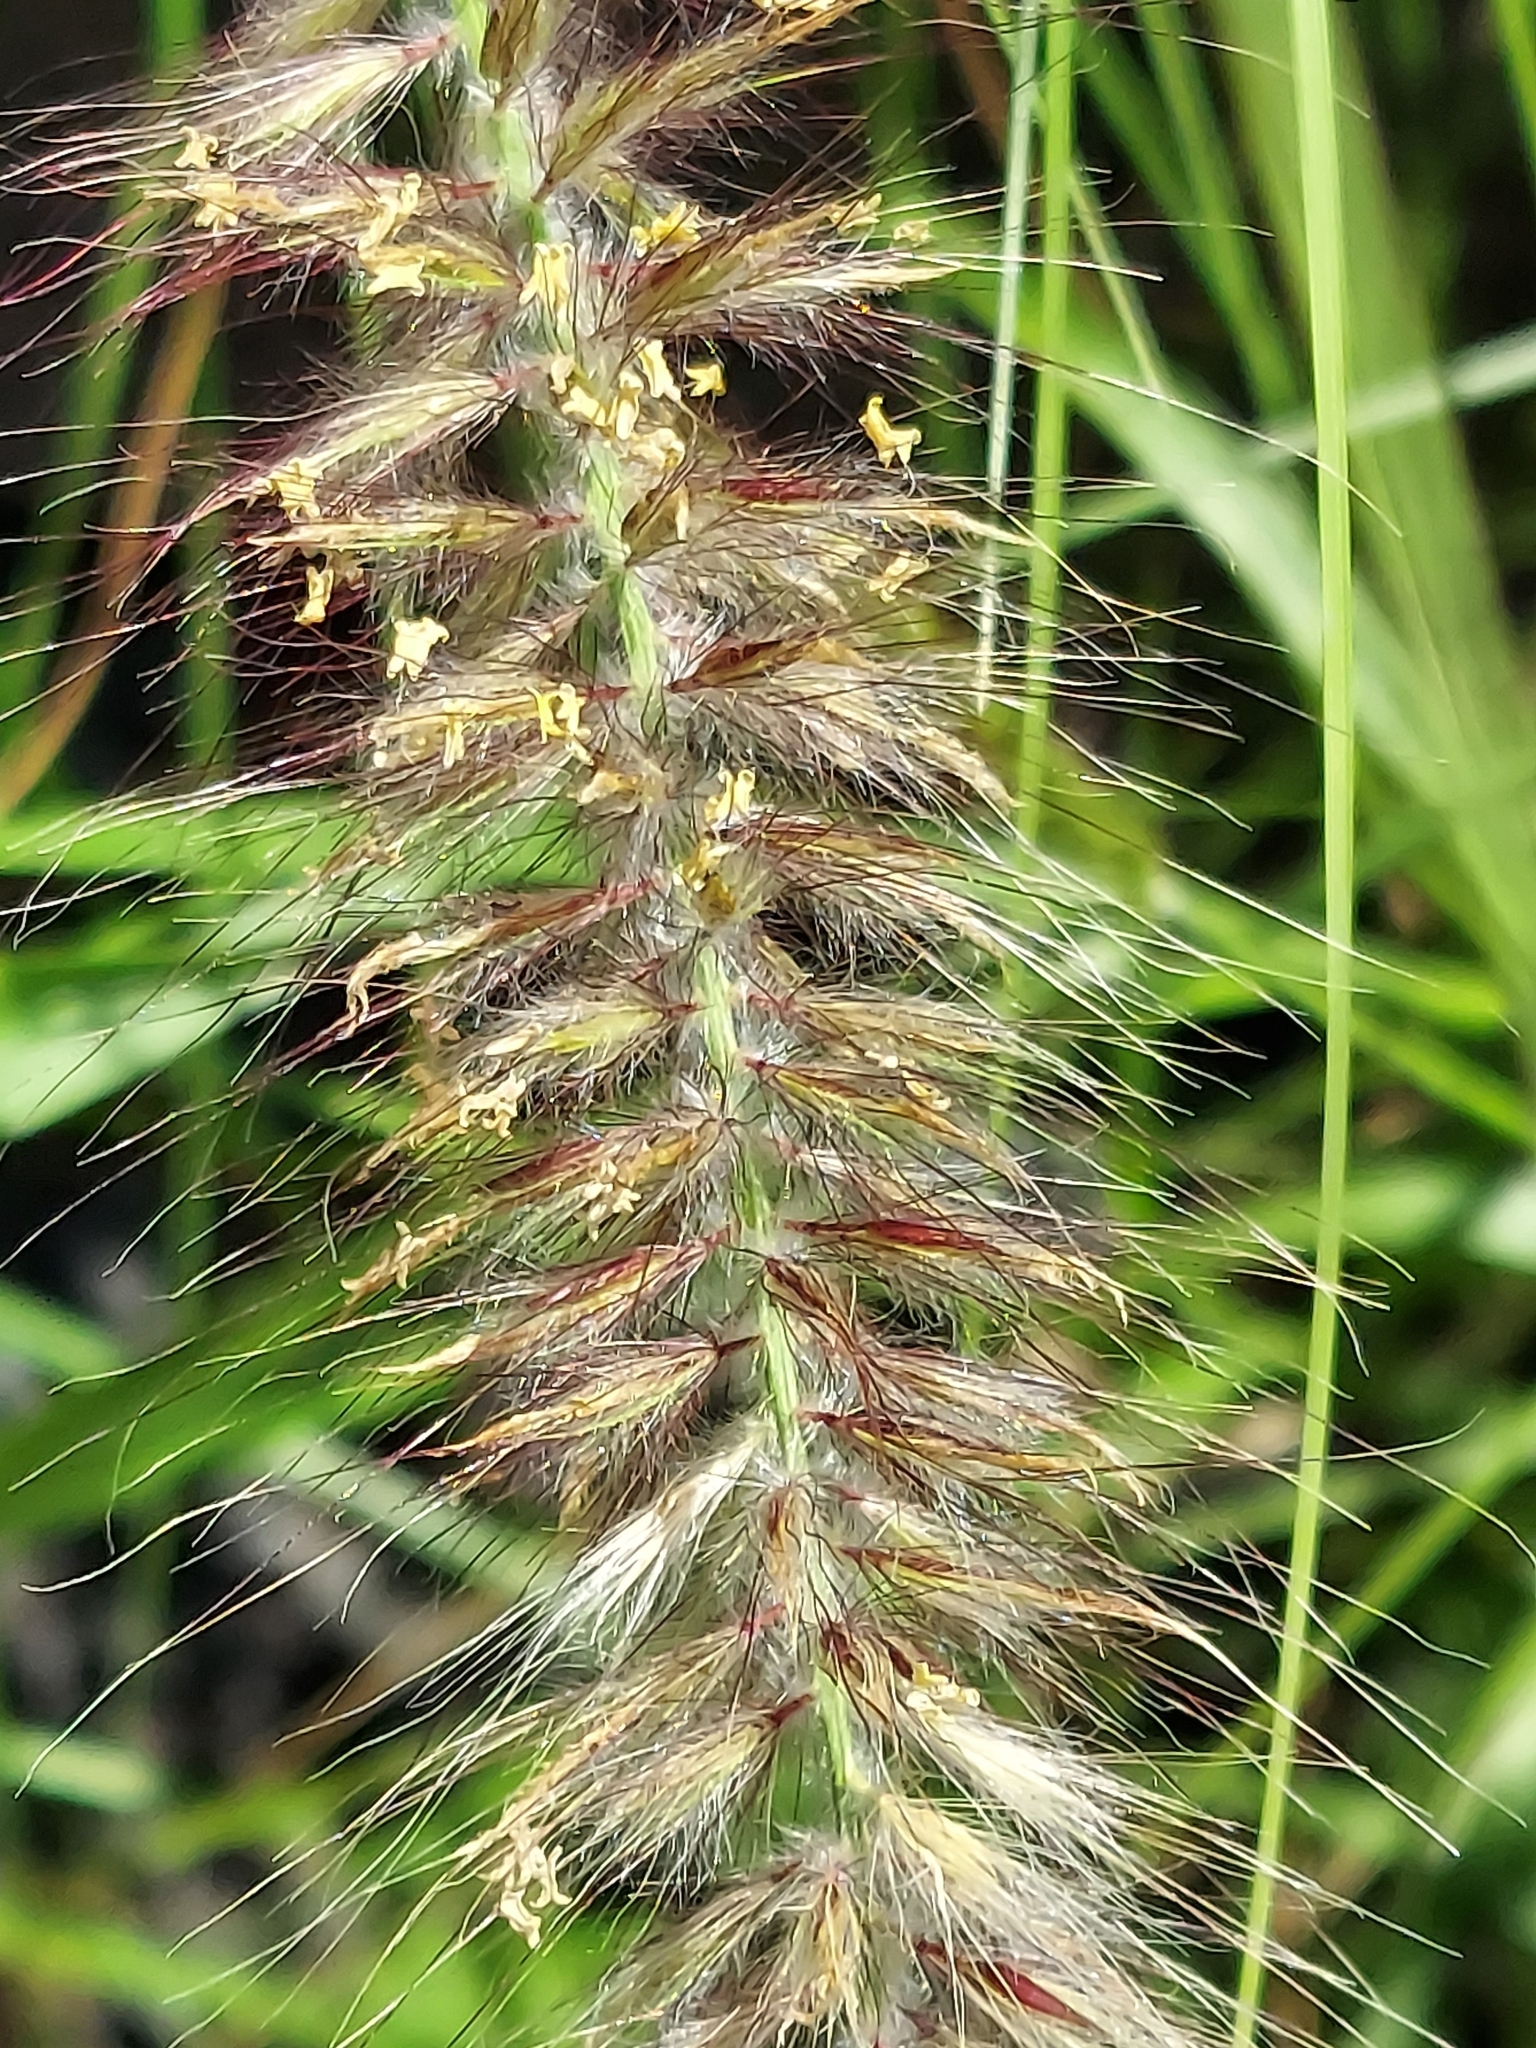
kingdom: Plantae
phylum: Tracheophyta
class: Liliopsida
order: Poales
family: Poaceae
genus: Cenchrus
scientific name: Cenchrus setaceus
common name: Crimson fountaingrass
